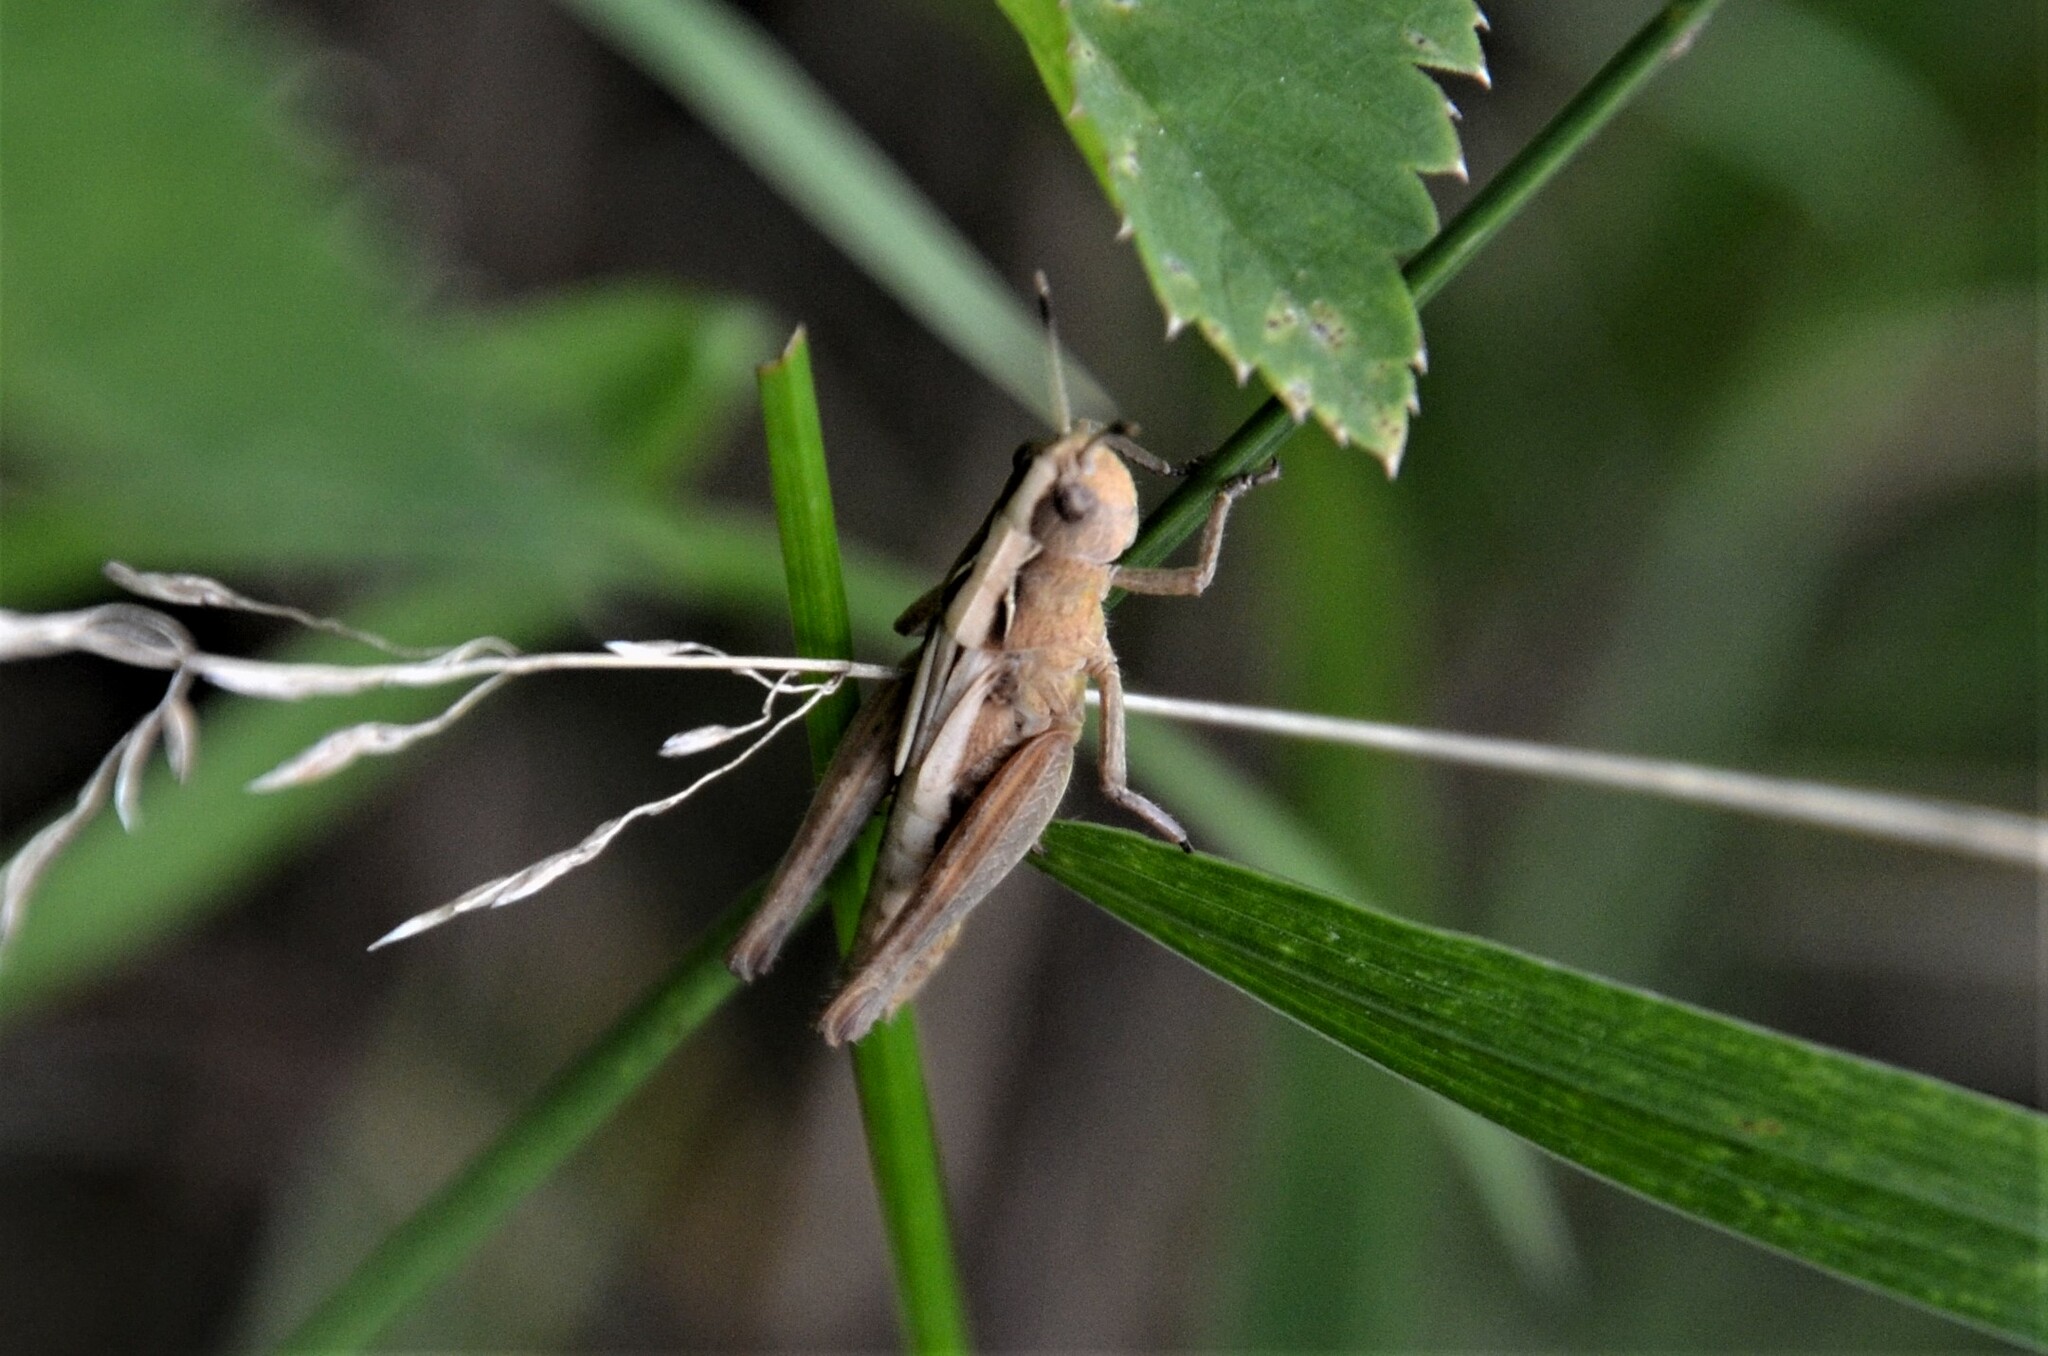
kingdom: Animalia
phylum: Arthropoda
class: Insecta
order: Orthoptera
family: Acrididae
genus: Gomphocerippus
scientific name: Gomphocerippus rufus
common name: Rufous grasshopper
